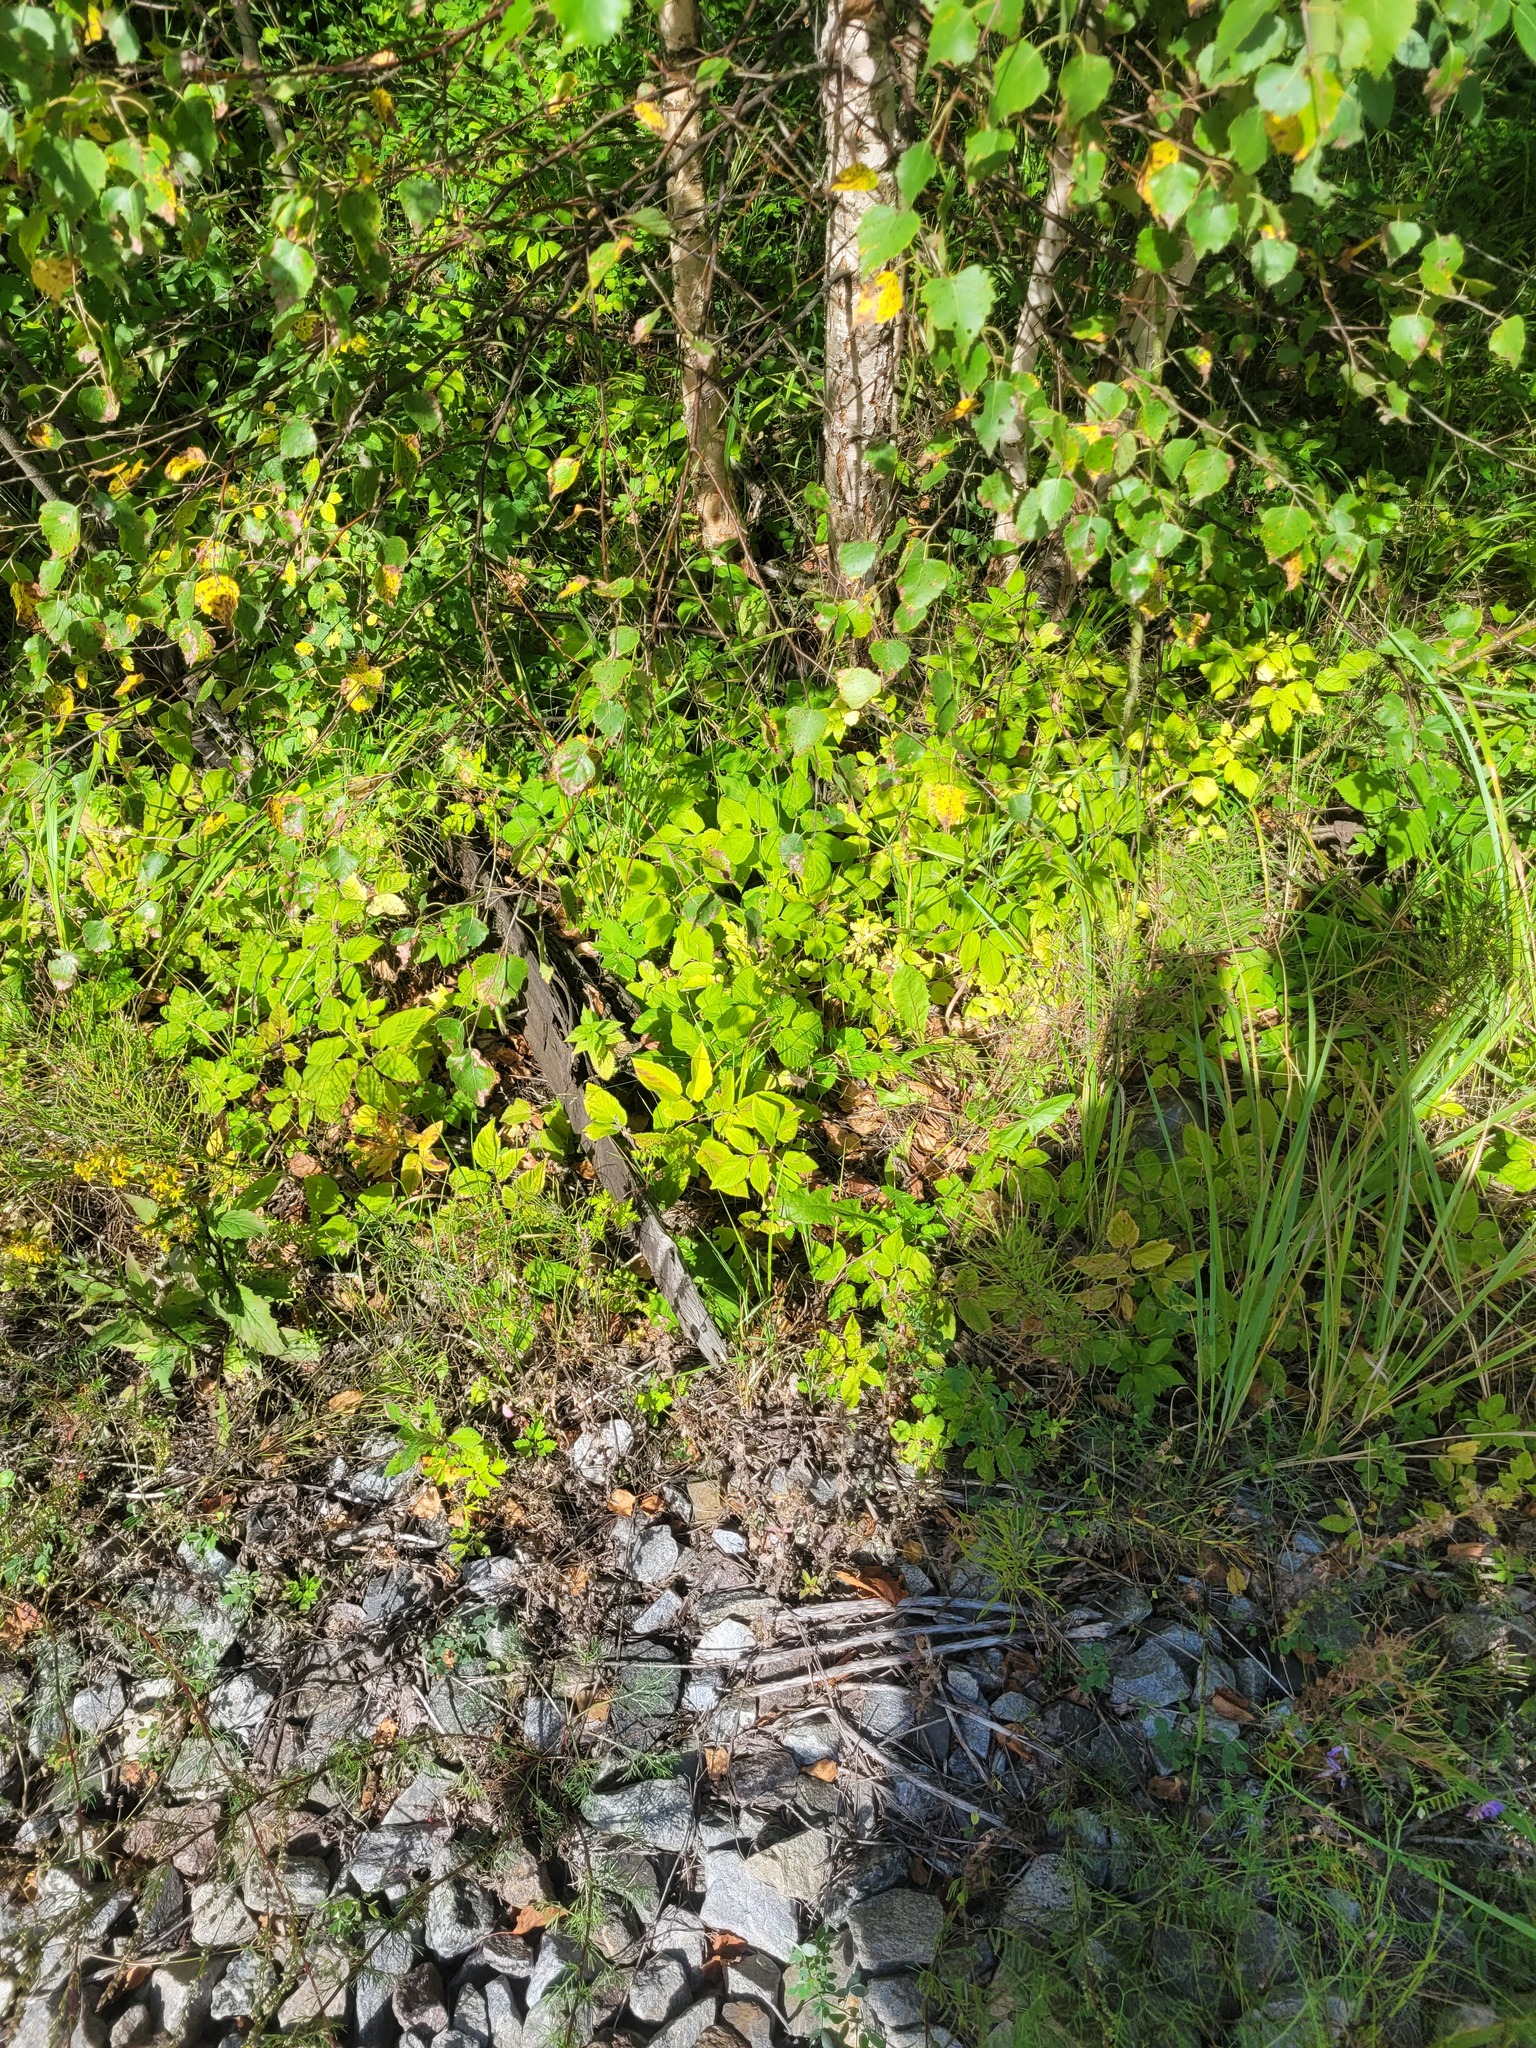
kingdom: Plantae
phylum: Tracheophyta
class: Magnoliopsida
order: Apiales
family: Apiaceae
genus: Aegopodium
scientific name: Aegopodium podagraria
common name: Ground-elder
